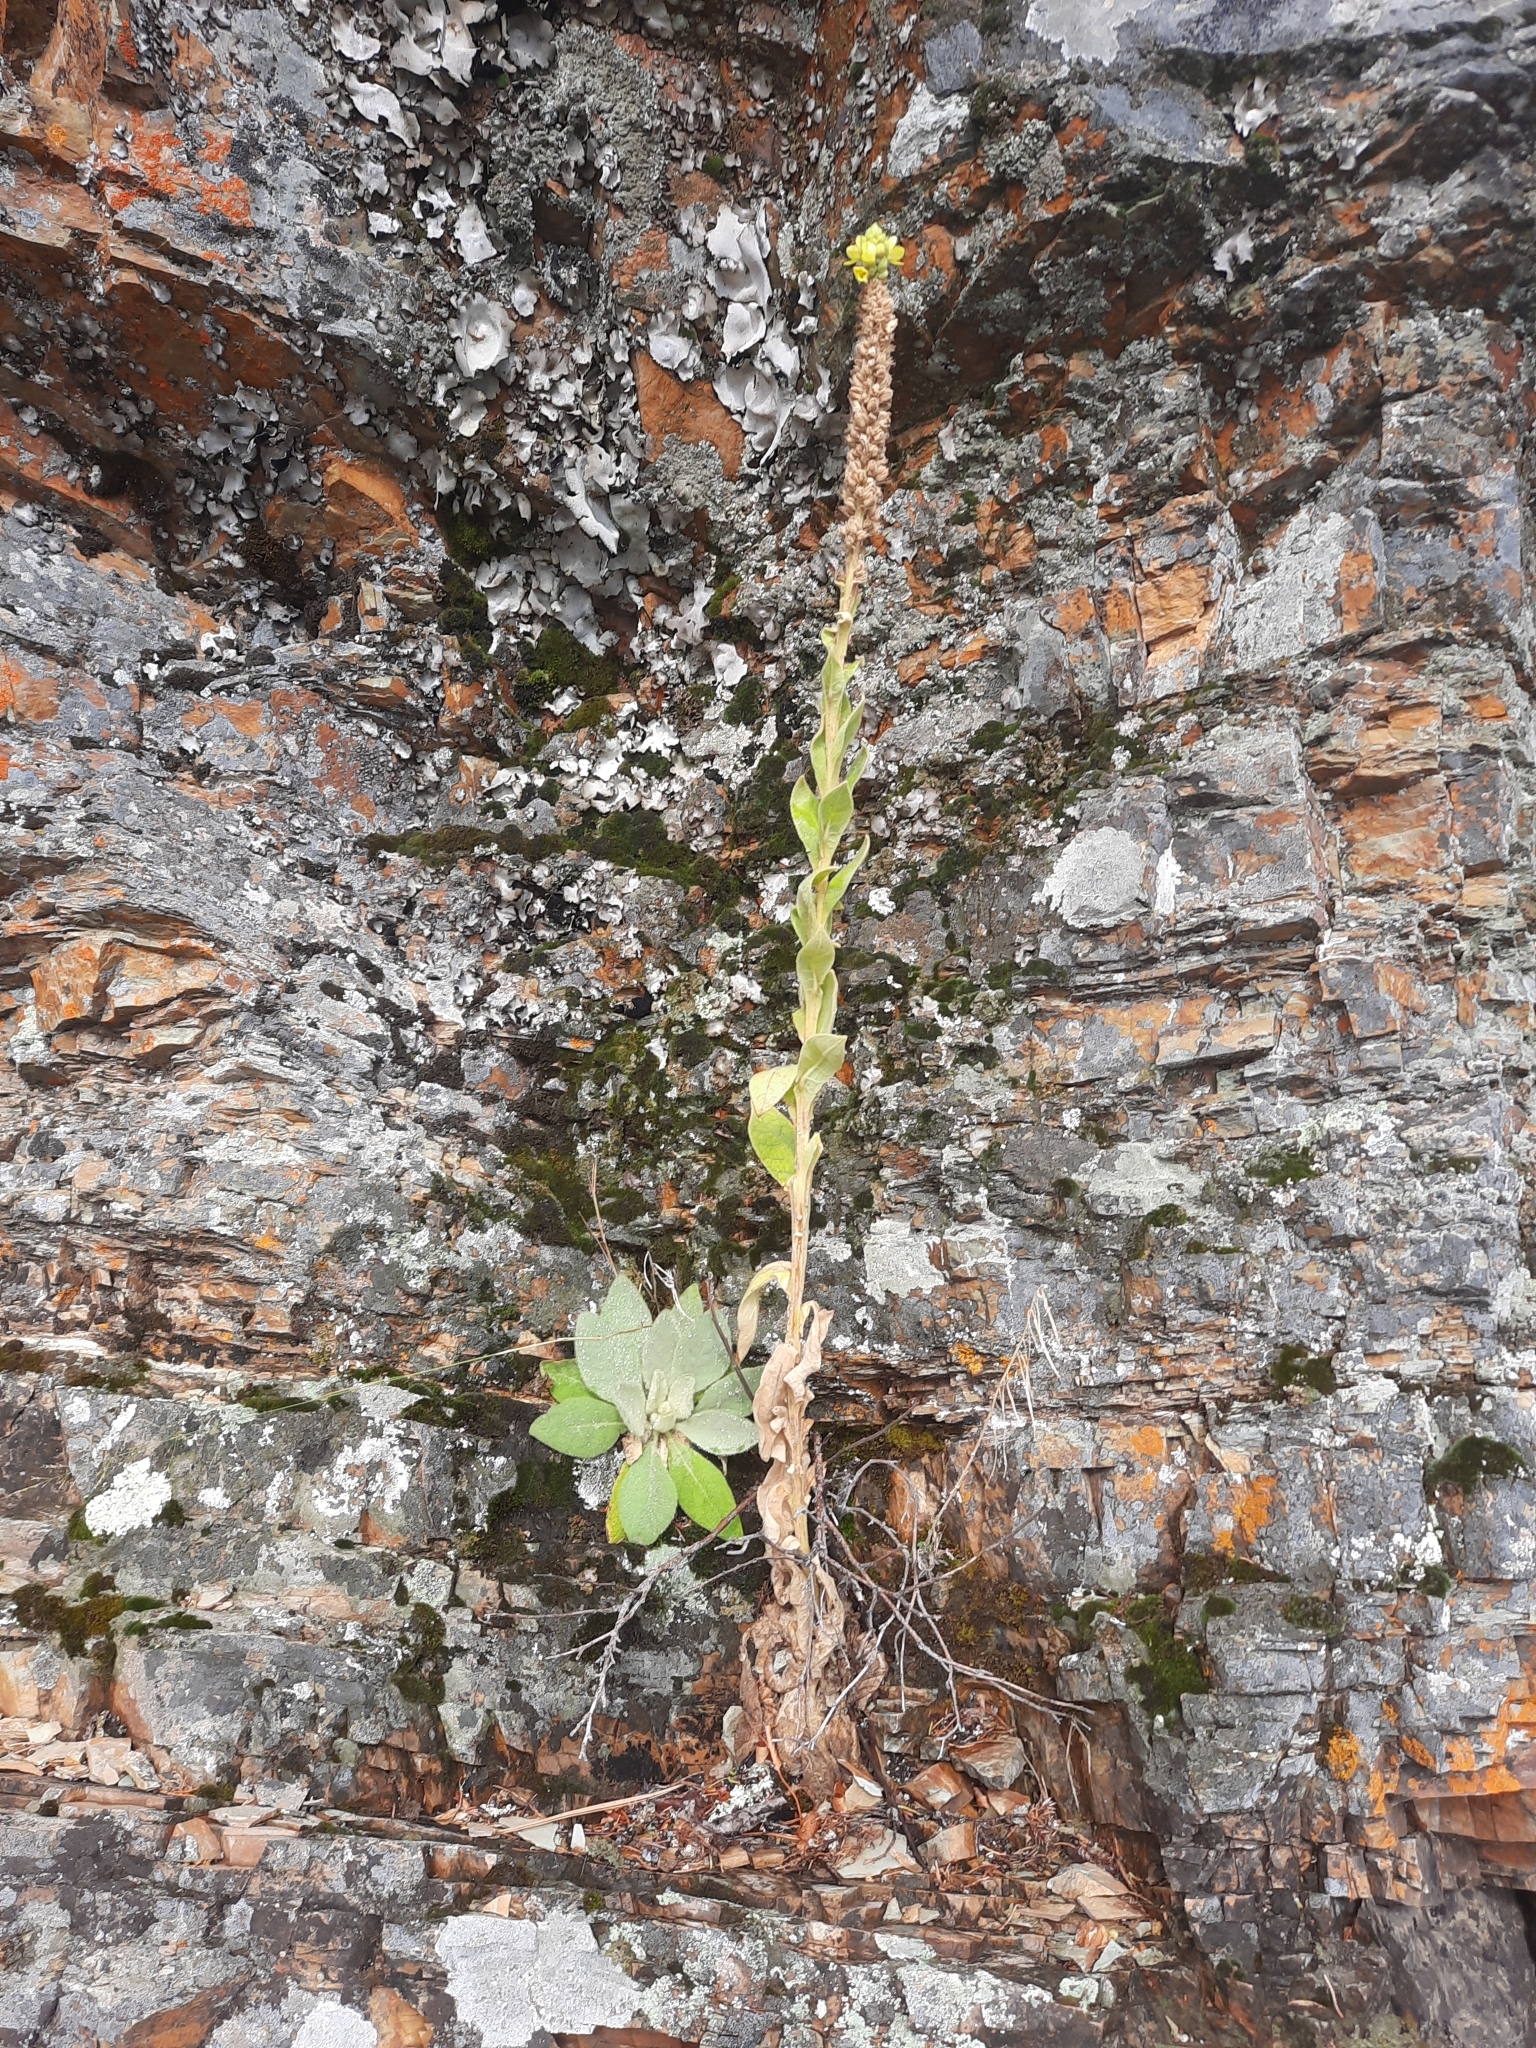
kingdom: Plantae
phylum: Tracheophyta
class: Magnoliopsida
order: Lamiales
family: Scrophulariaceae
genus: Verbascum
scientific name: Verbascum thapsus
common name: Common mullein
